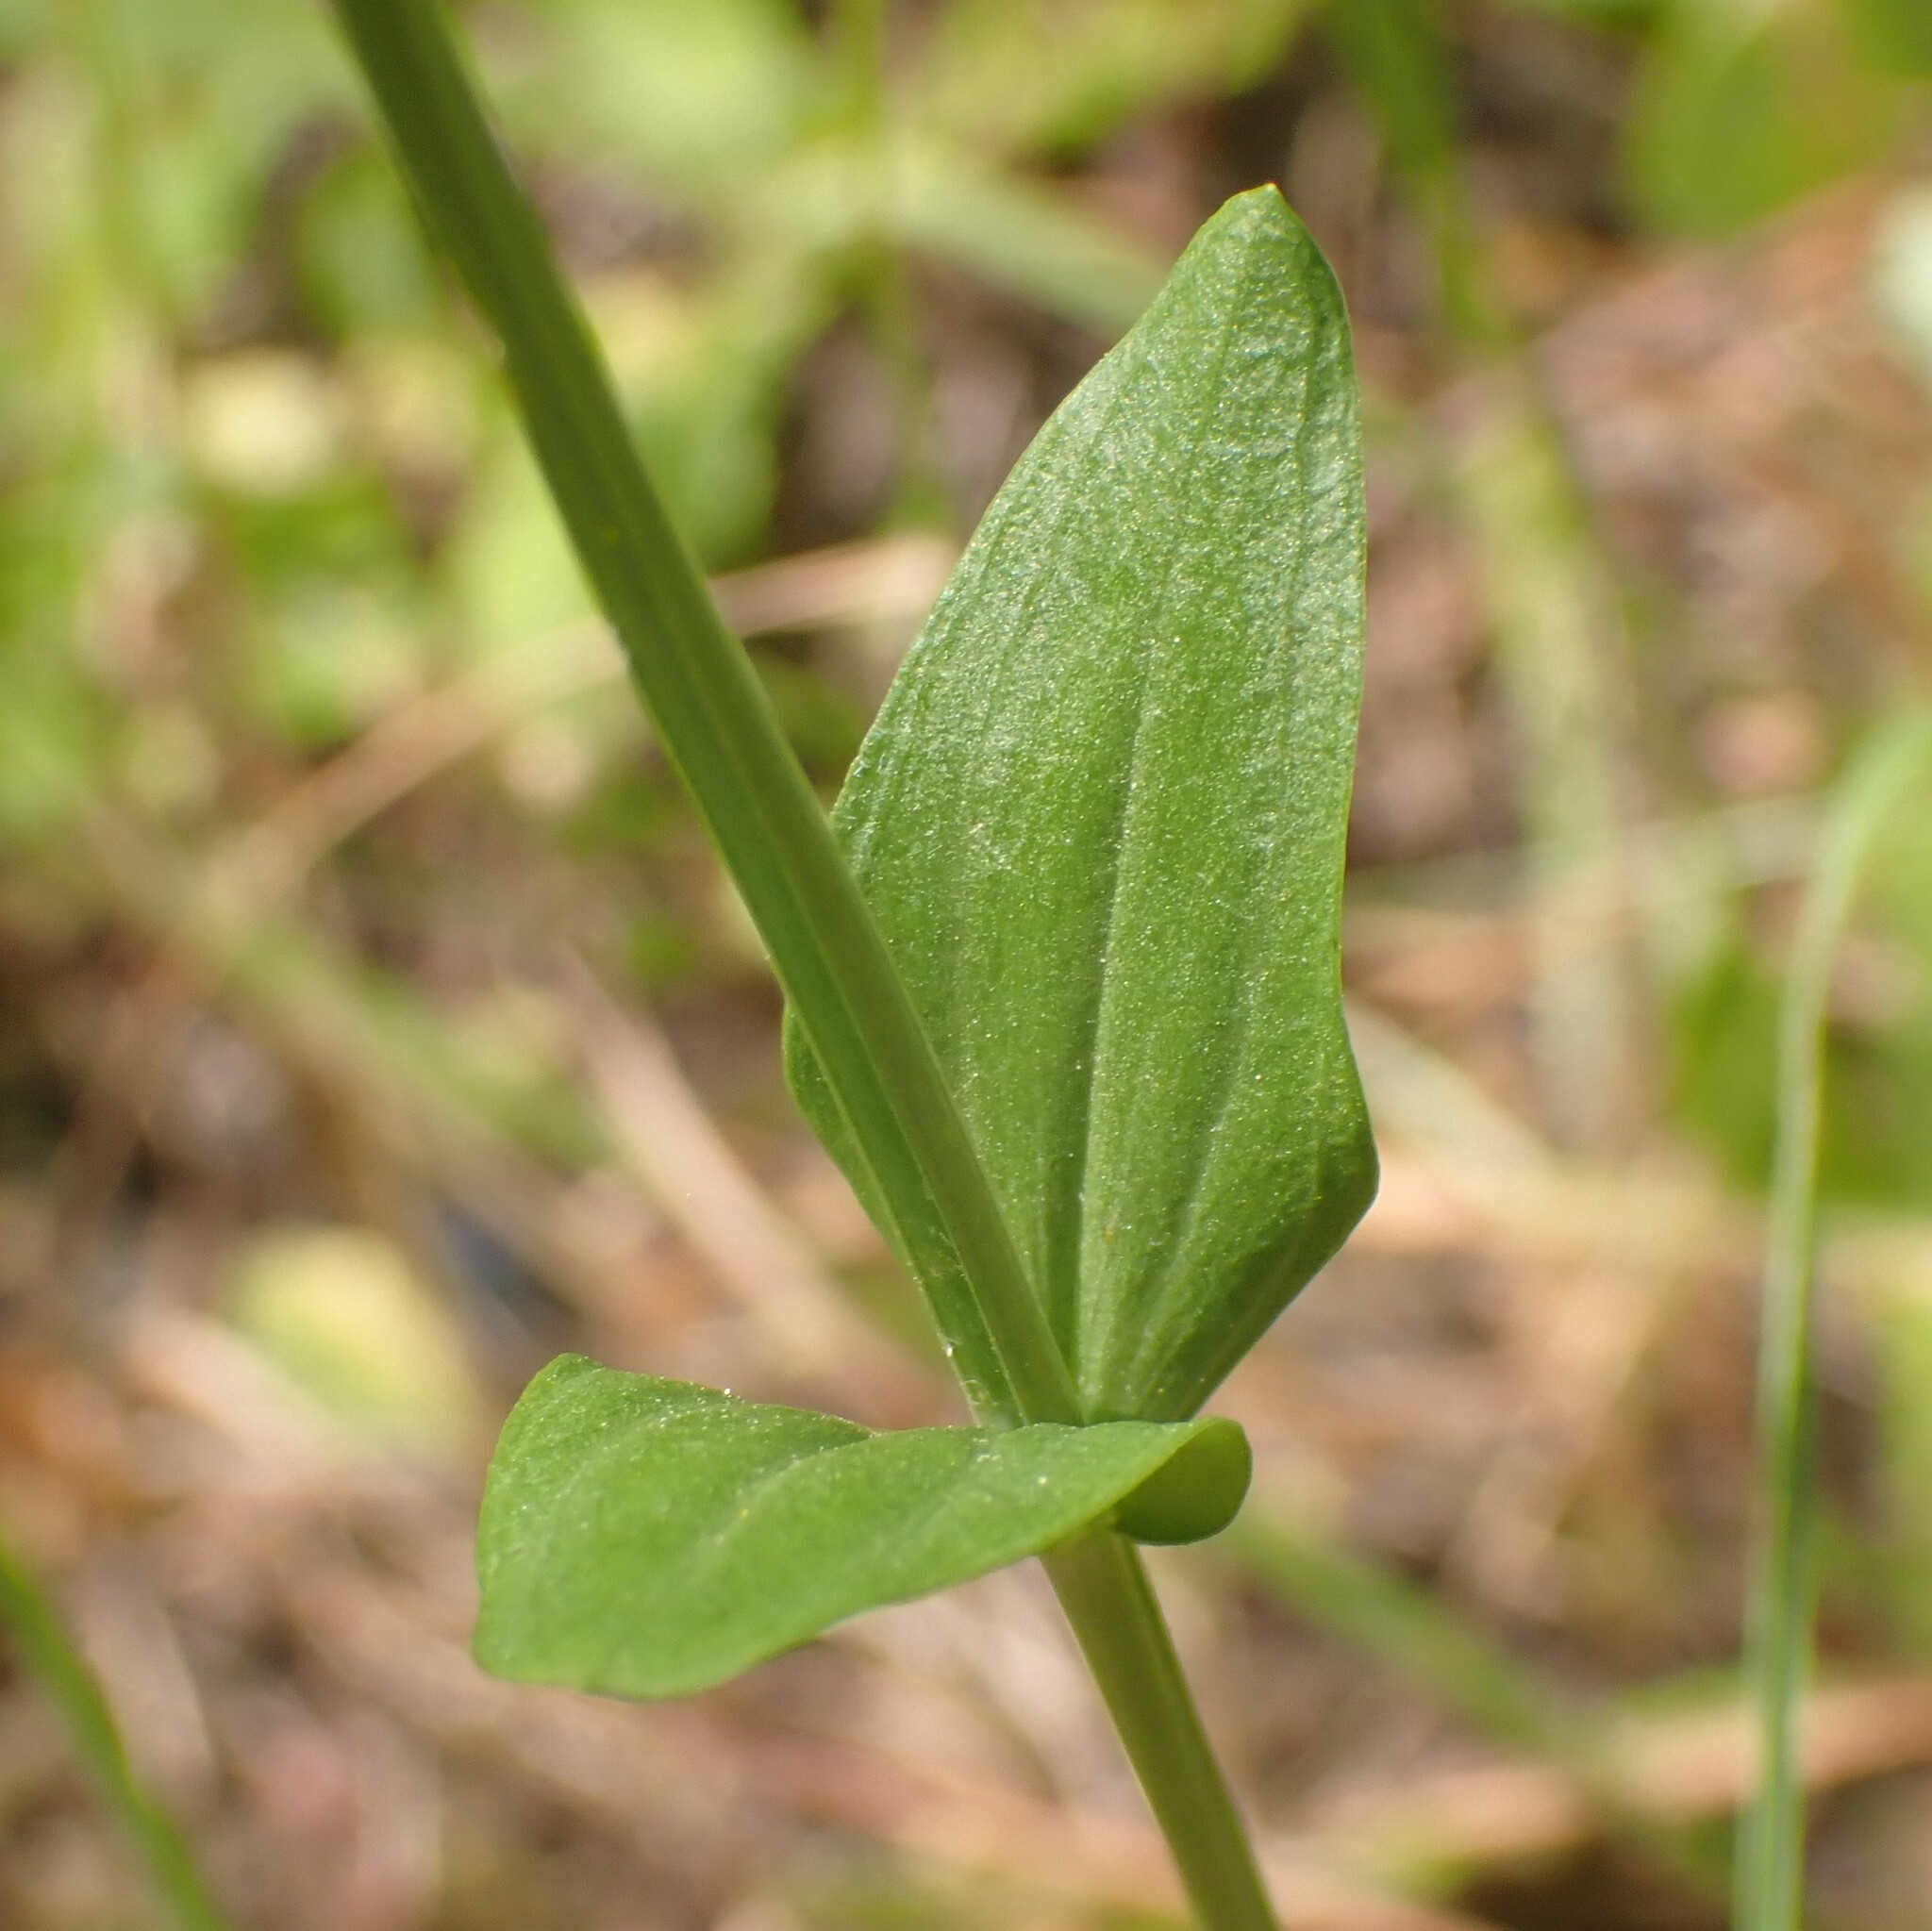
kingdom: Plantae
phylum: Tracheophyta
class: Magnoliopsida
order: Gentianales
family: Gentianaceae
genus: Centaurium
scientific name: Centaurium erythraea
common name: Common centaury
